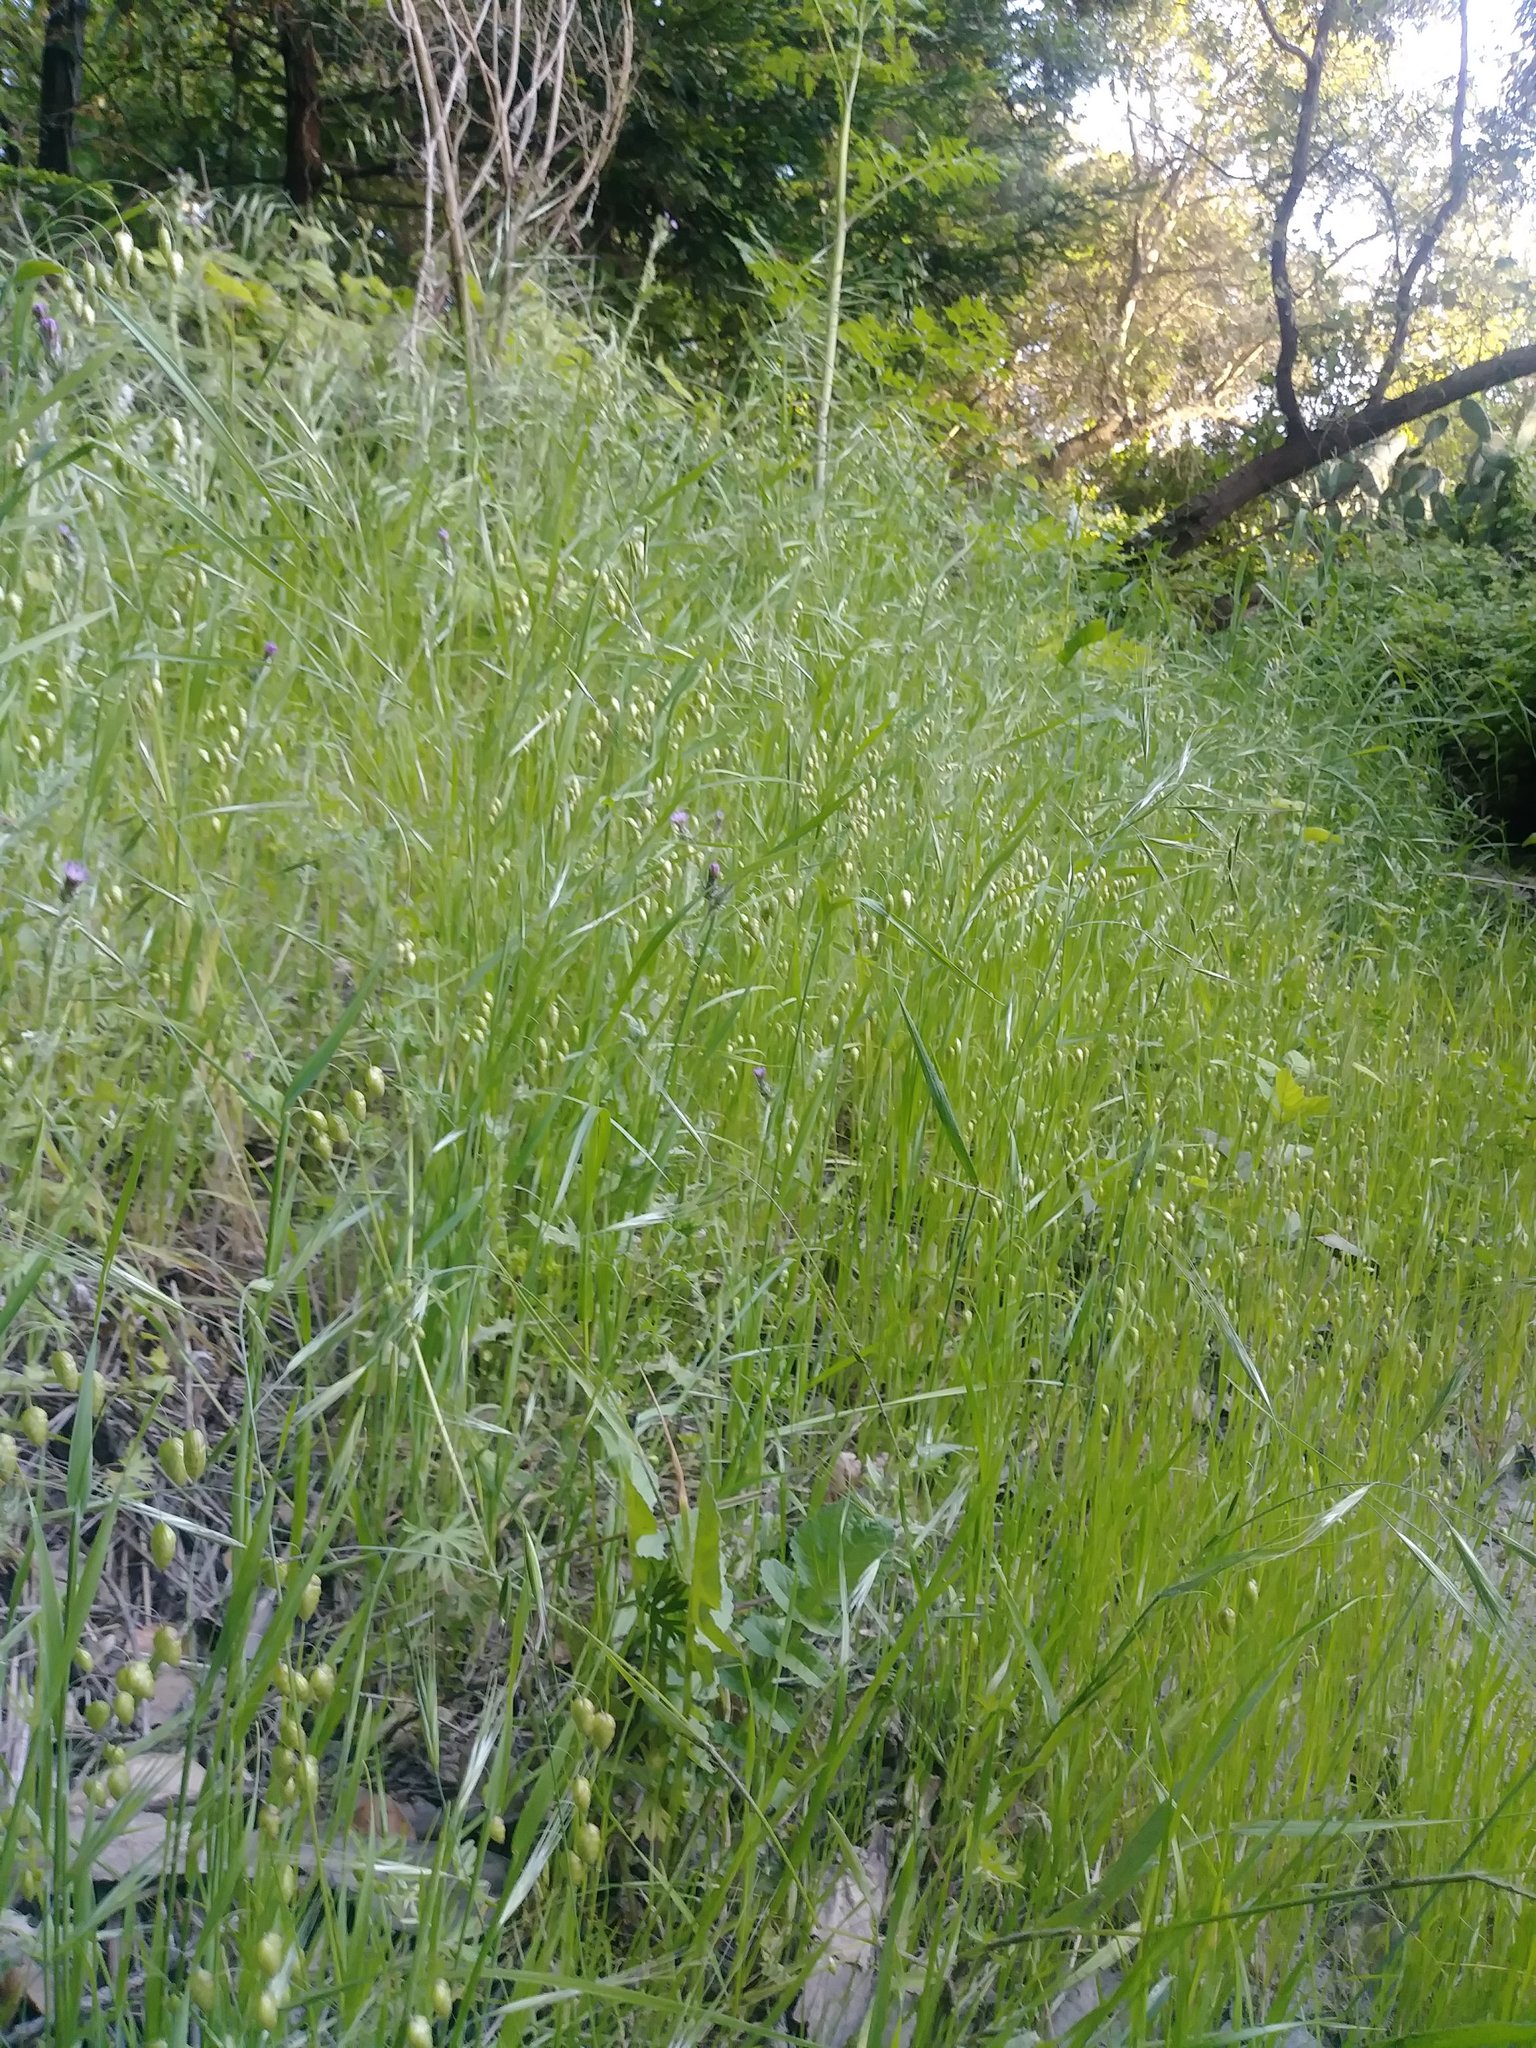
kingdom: Plantae
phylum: Tracheophyta
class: Liliopsida
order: Poales
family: Poaceae
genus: Briza
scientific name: Briza maxima
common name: Big quakinggrass
